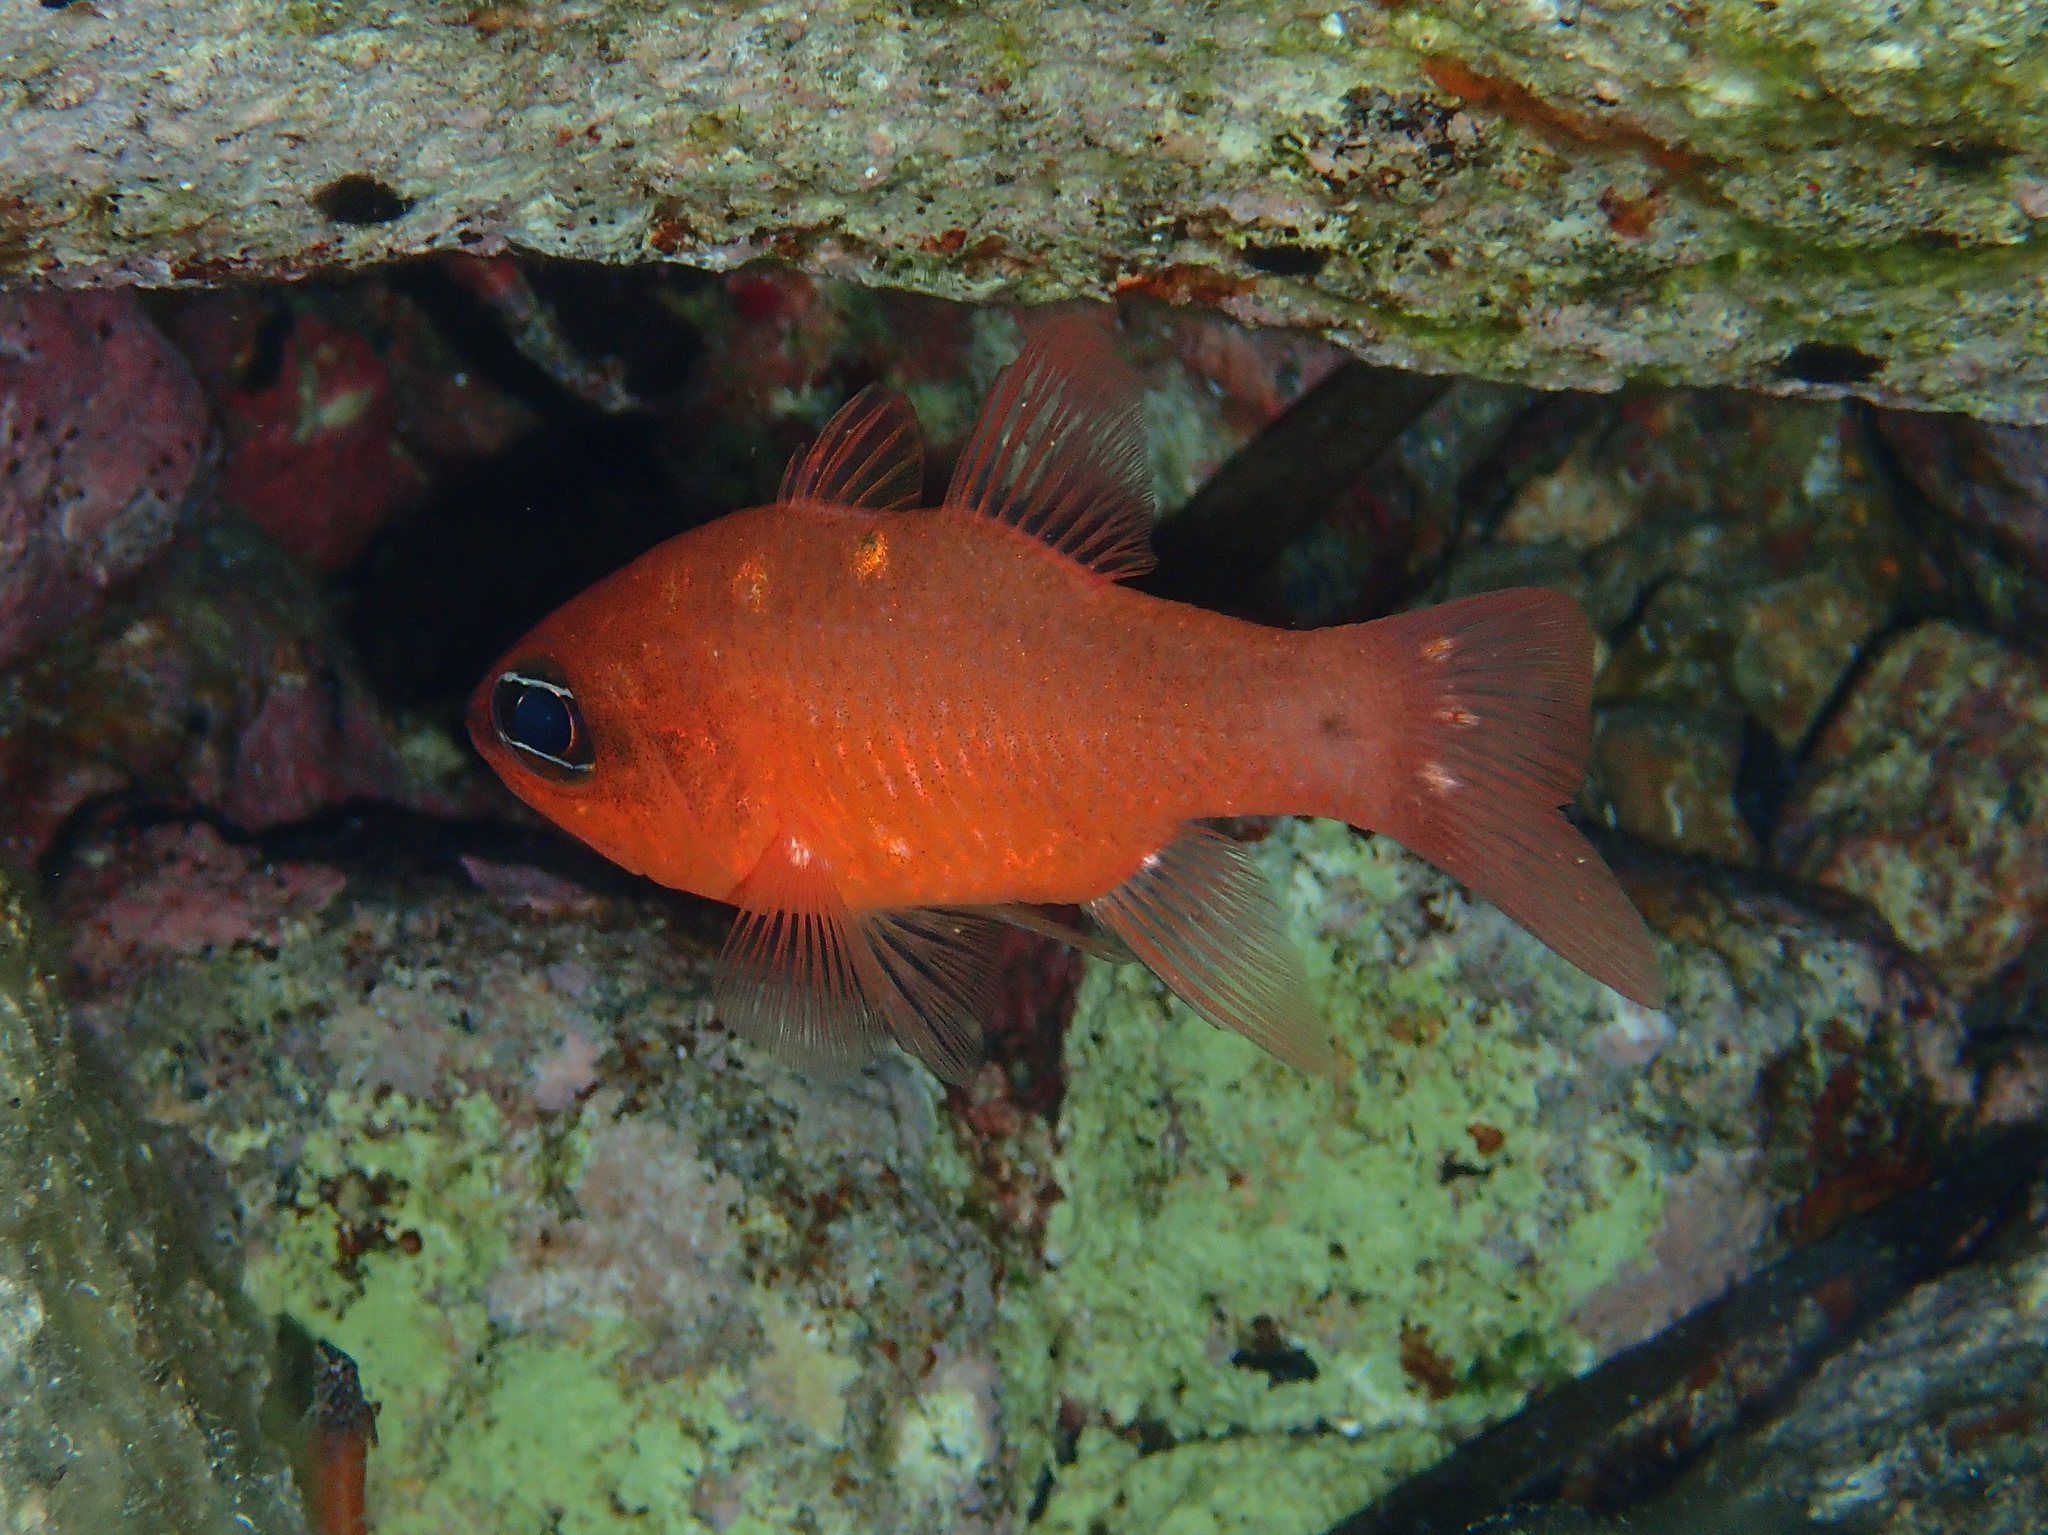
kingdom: Animalia
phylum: Chordata
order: Perciformes
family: Apogonidae
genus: Apogon
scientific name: Apogon imberbis
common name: Cardinal fish
